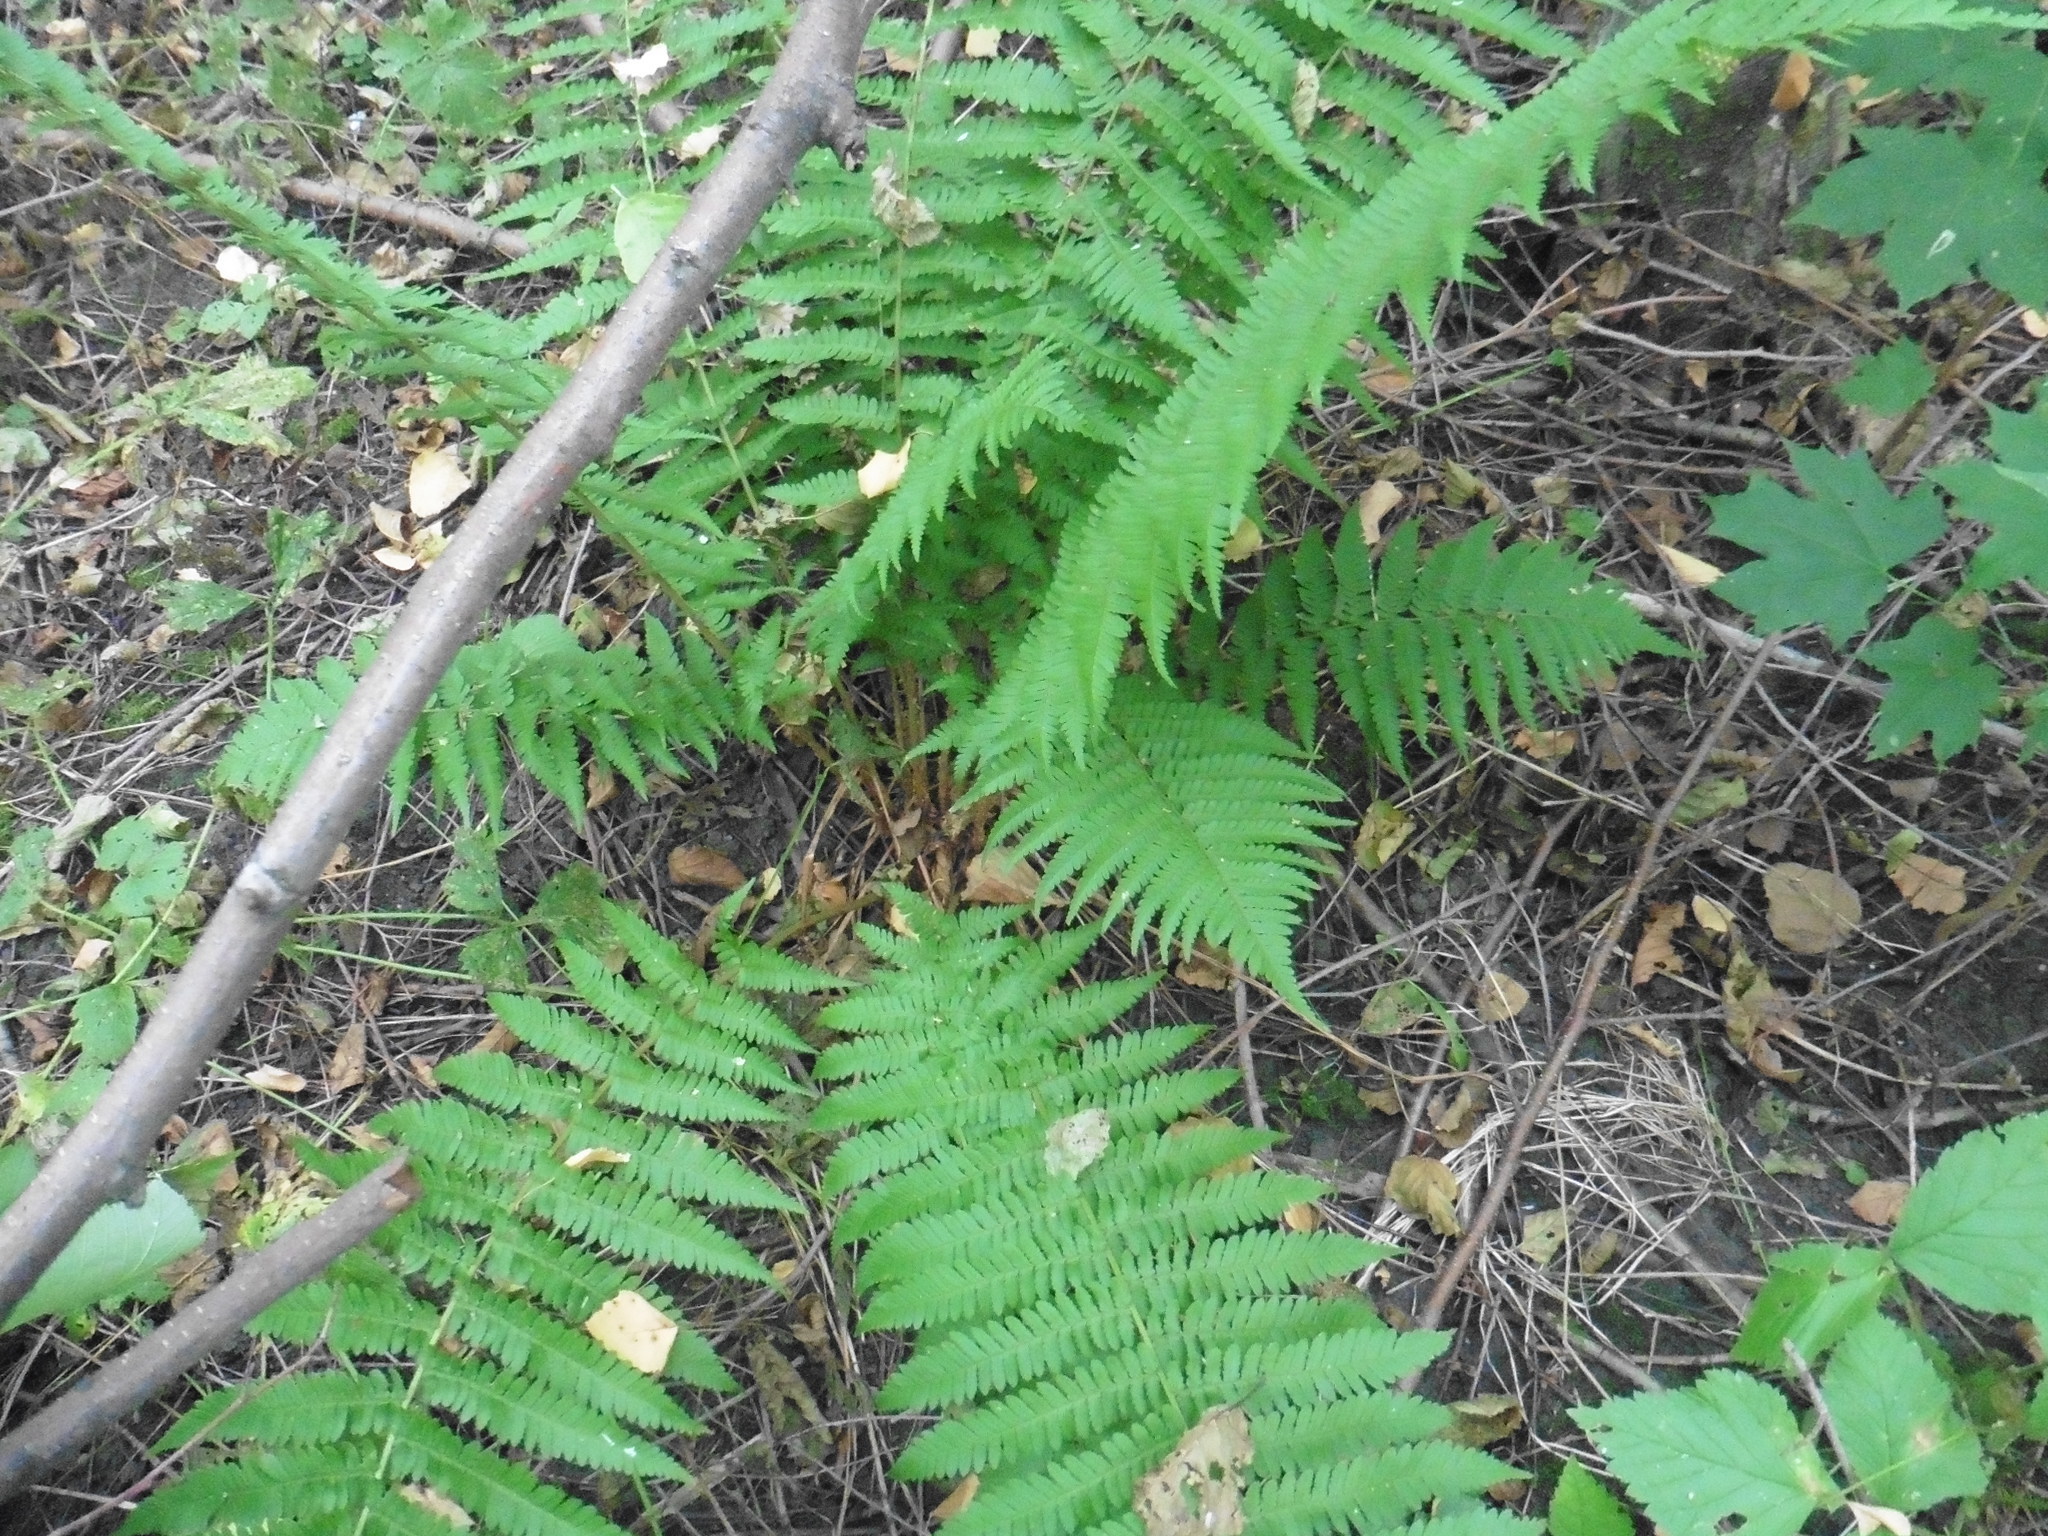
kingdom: Plantae
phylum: Tracheophyta
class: Polypodiopsida
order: Polypodiales
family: Dryopteridaceae
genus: Dryopteris
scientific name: Dryopteris filix-mas
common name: Male fern
